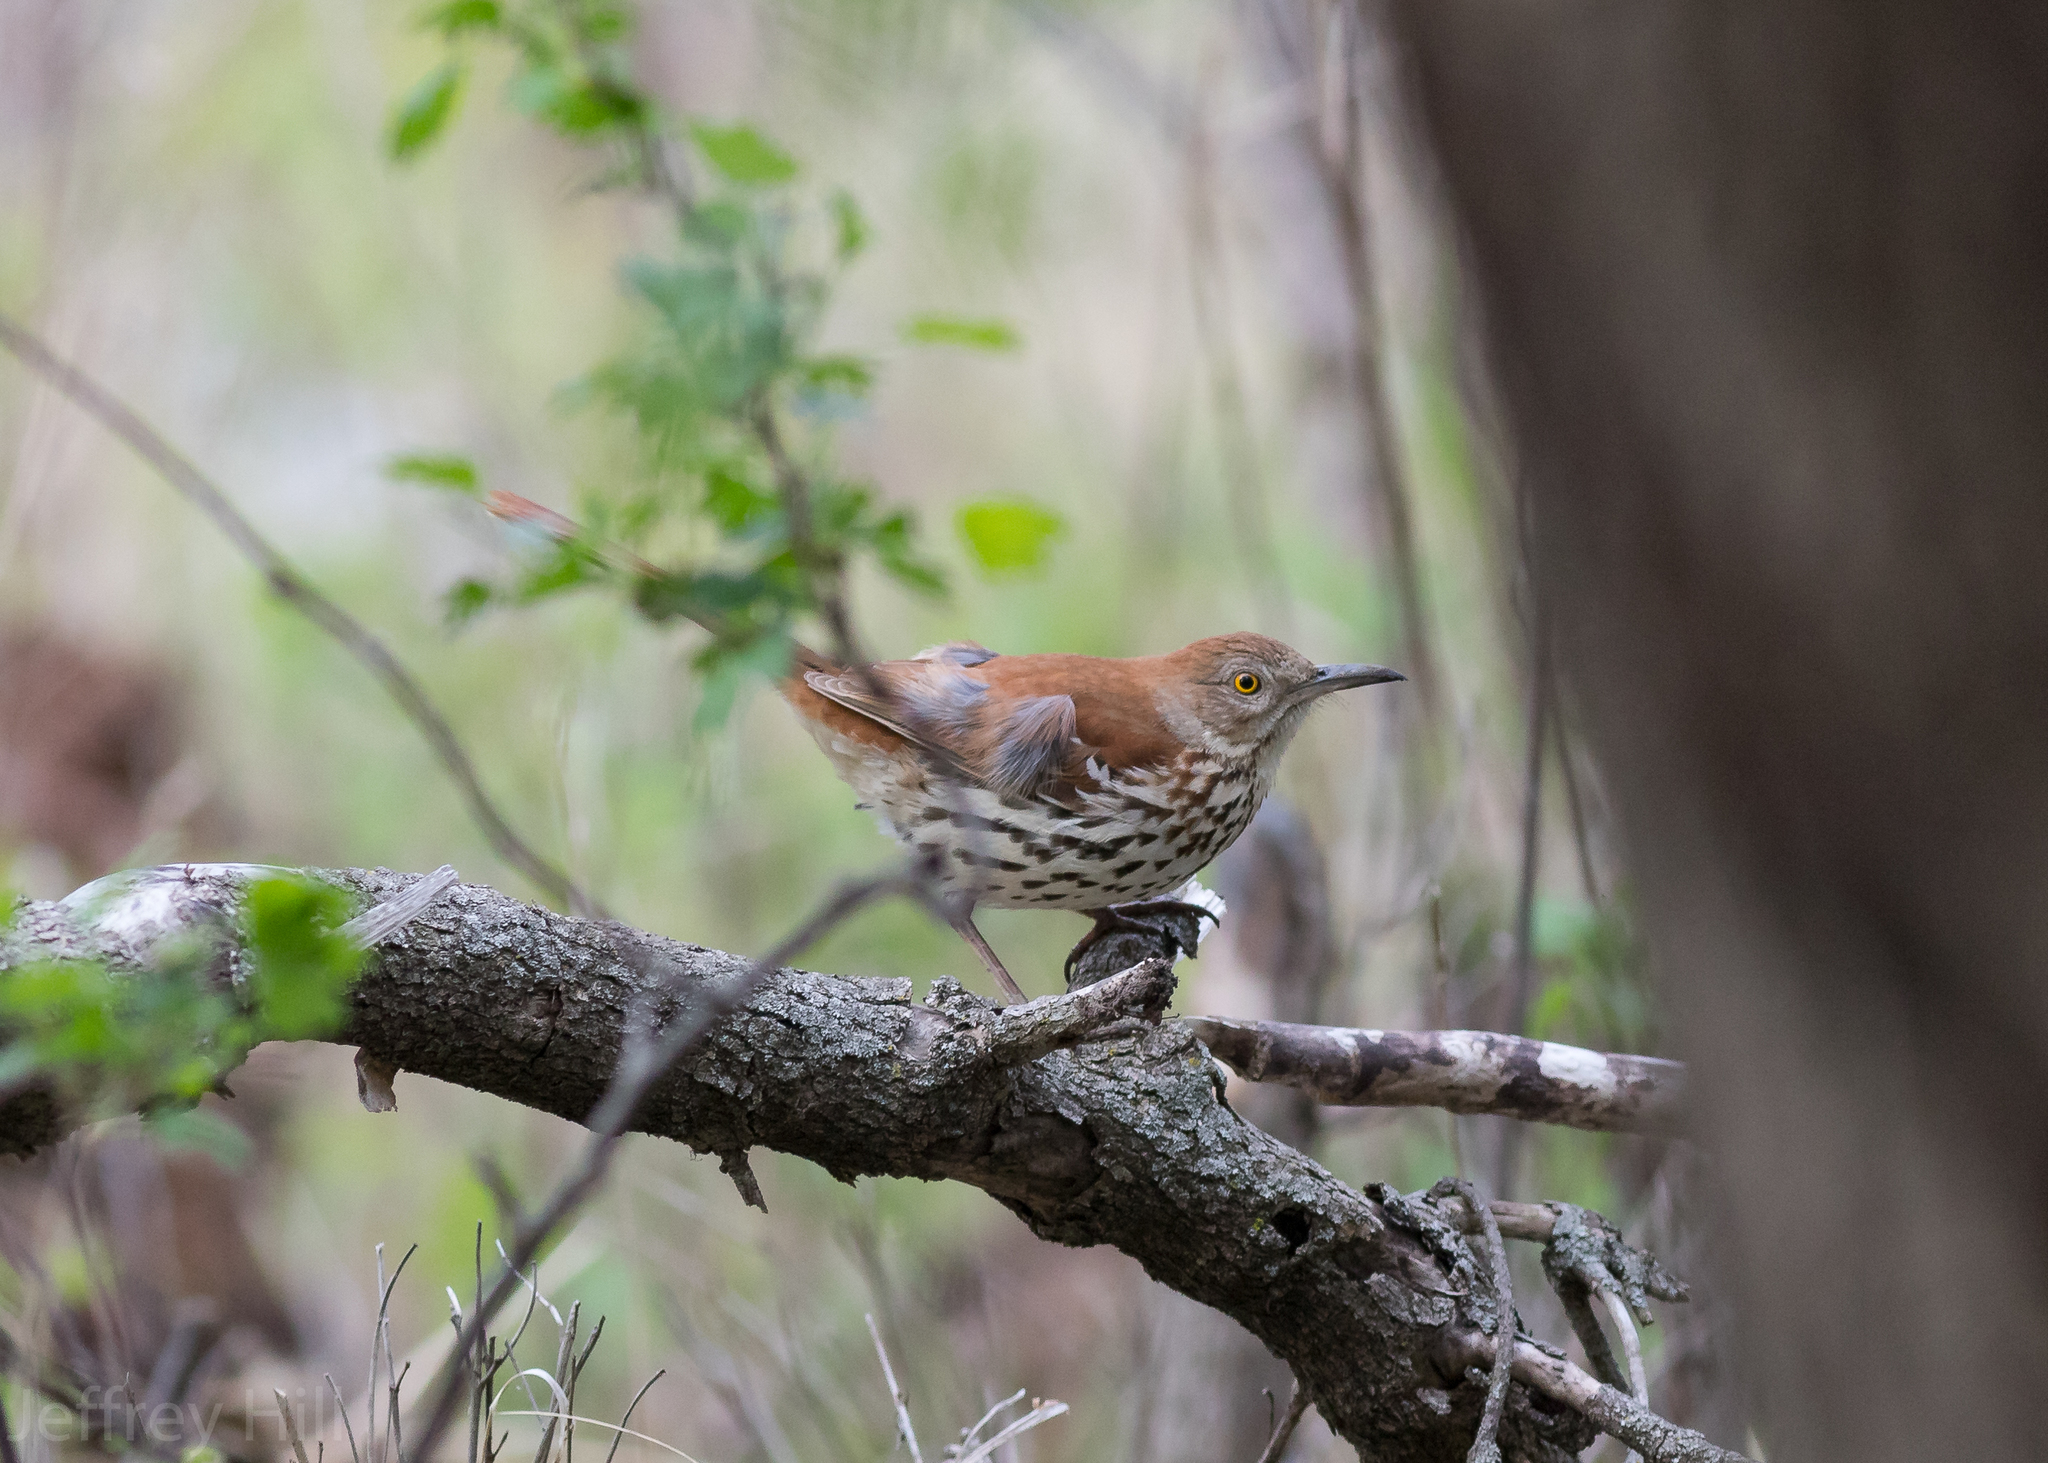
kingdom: Animalia
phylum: Chordata
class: Aves
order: Passeriformes
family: Mimidae
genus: Toxostoma
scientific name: Toxostoma rufum
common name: Brown thrasher
